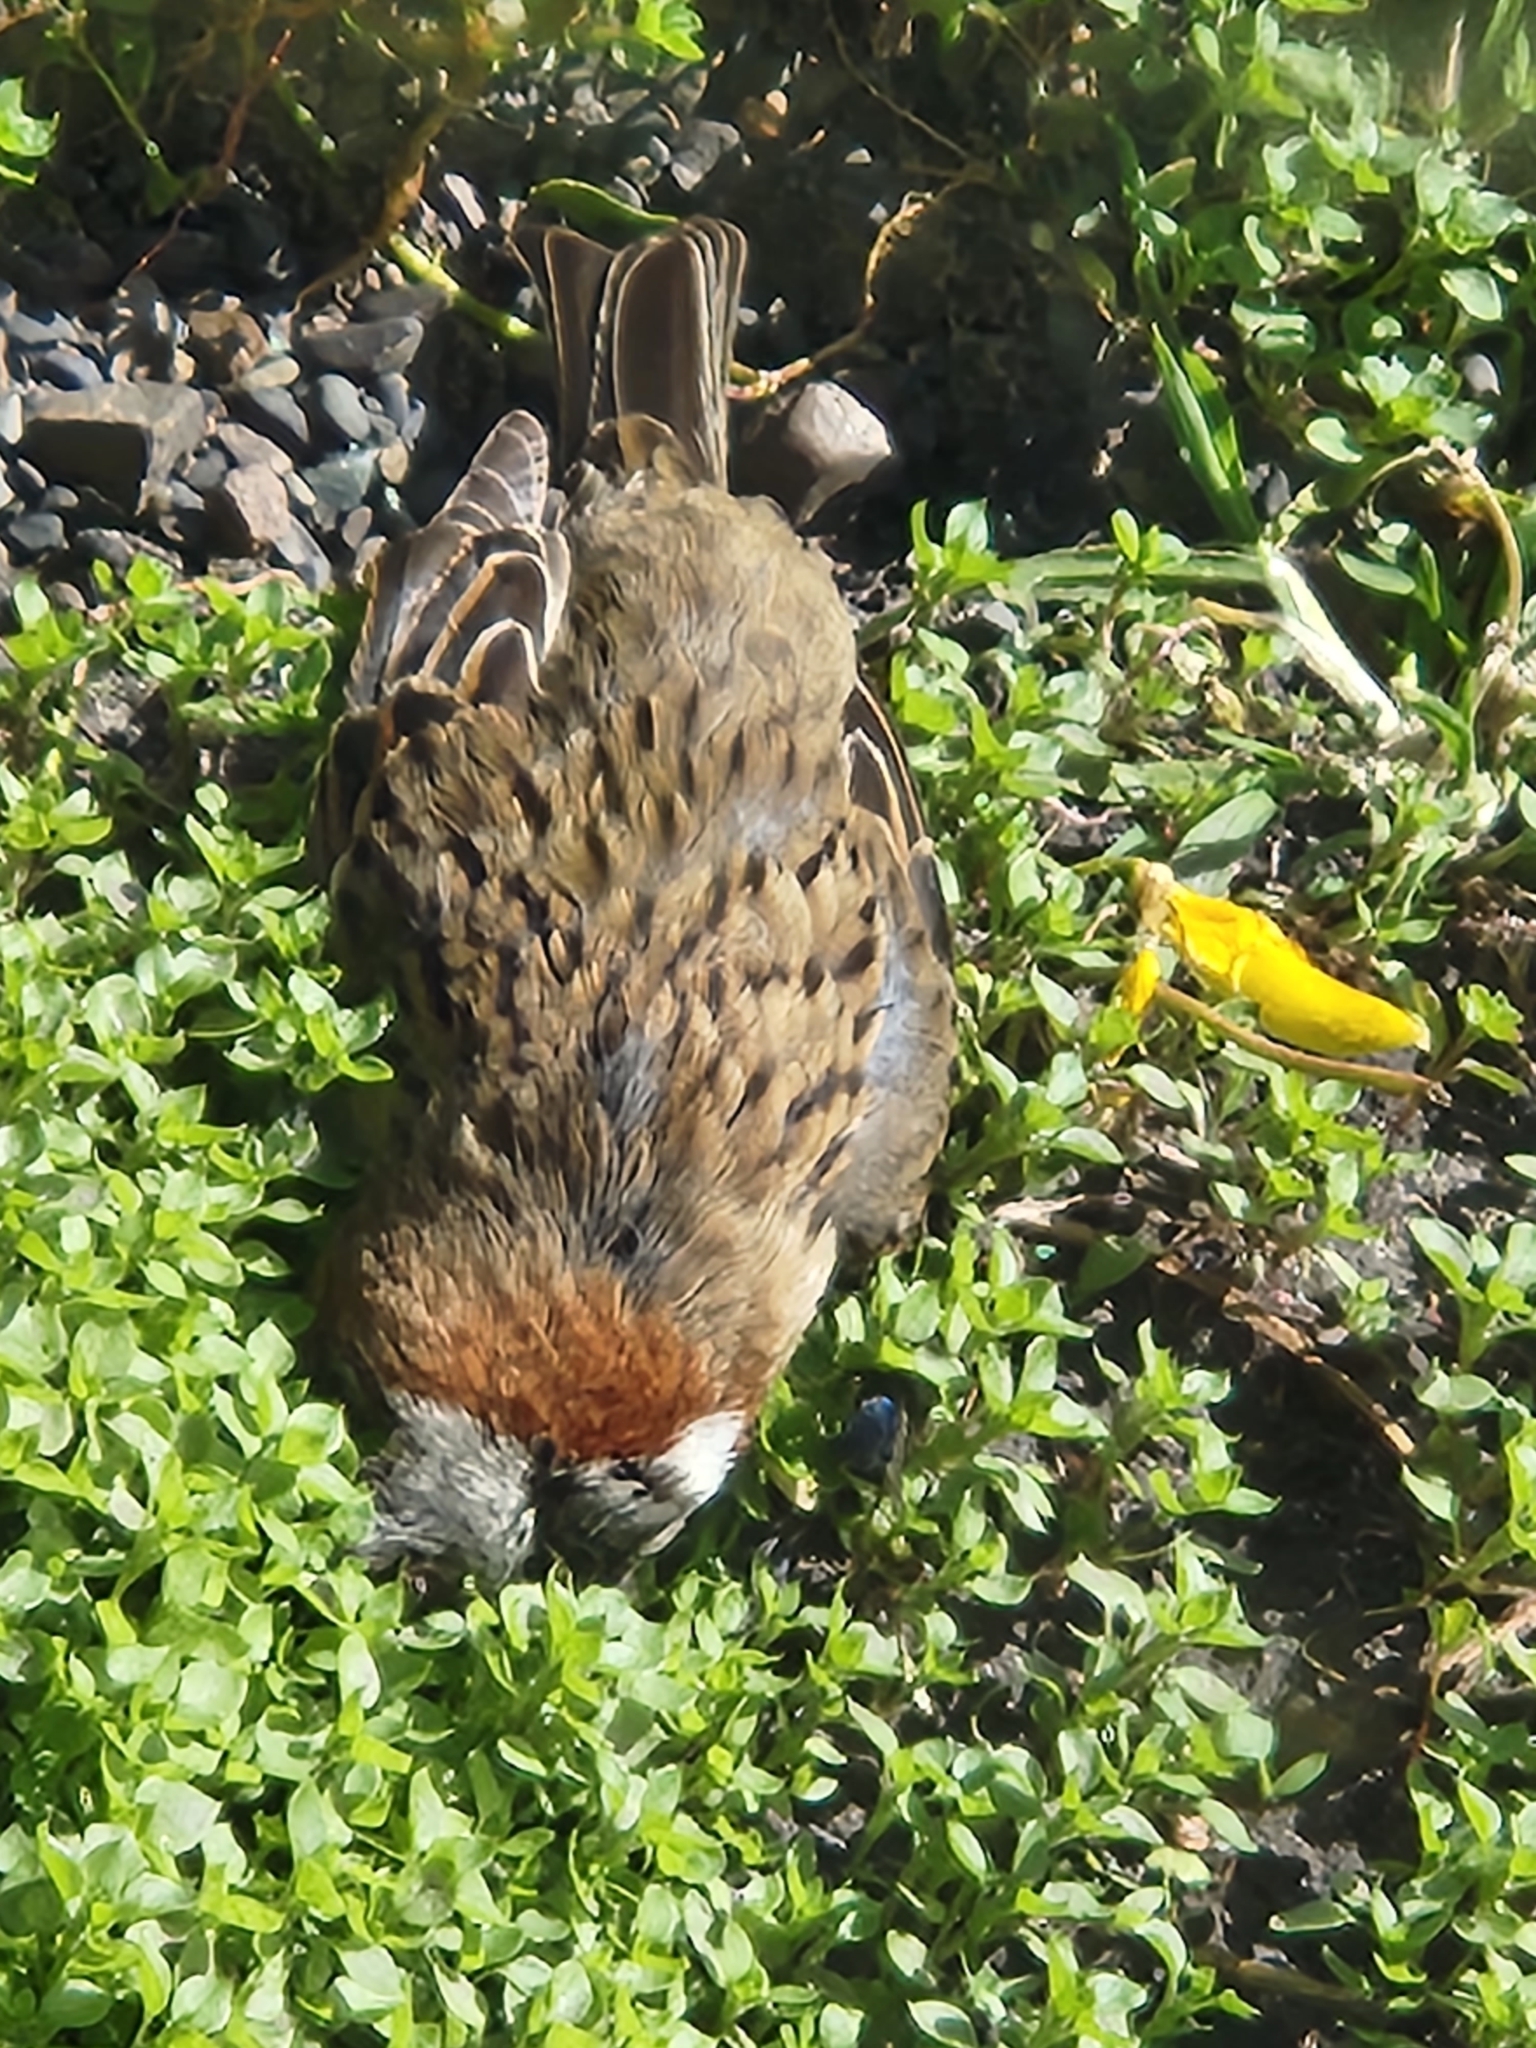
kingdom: Animalia
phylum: Chordata
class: Aves
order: Passeriformes
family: Passerellidae
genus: Zonotrichia
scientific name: Zonotrichia capensis
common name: Rufous-collared sparrow
